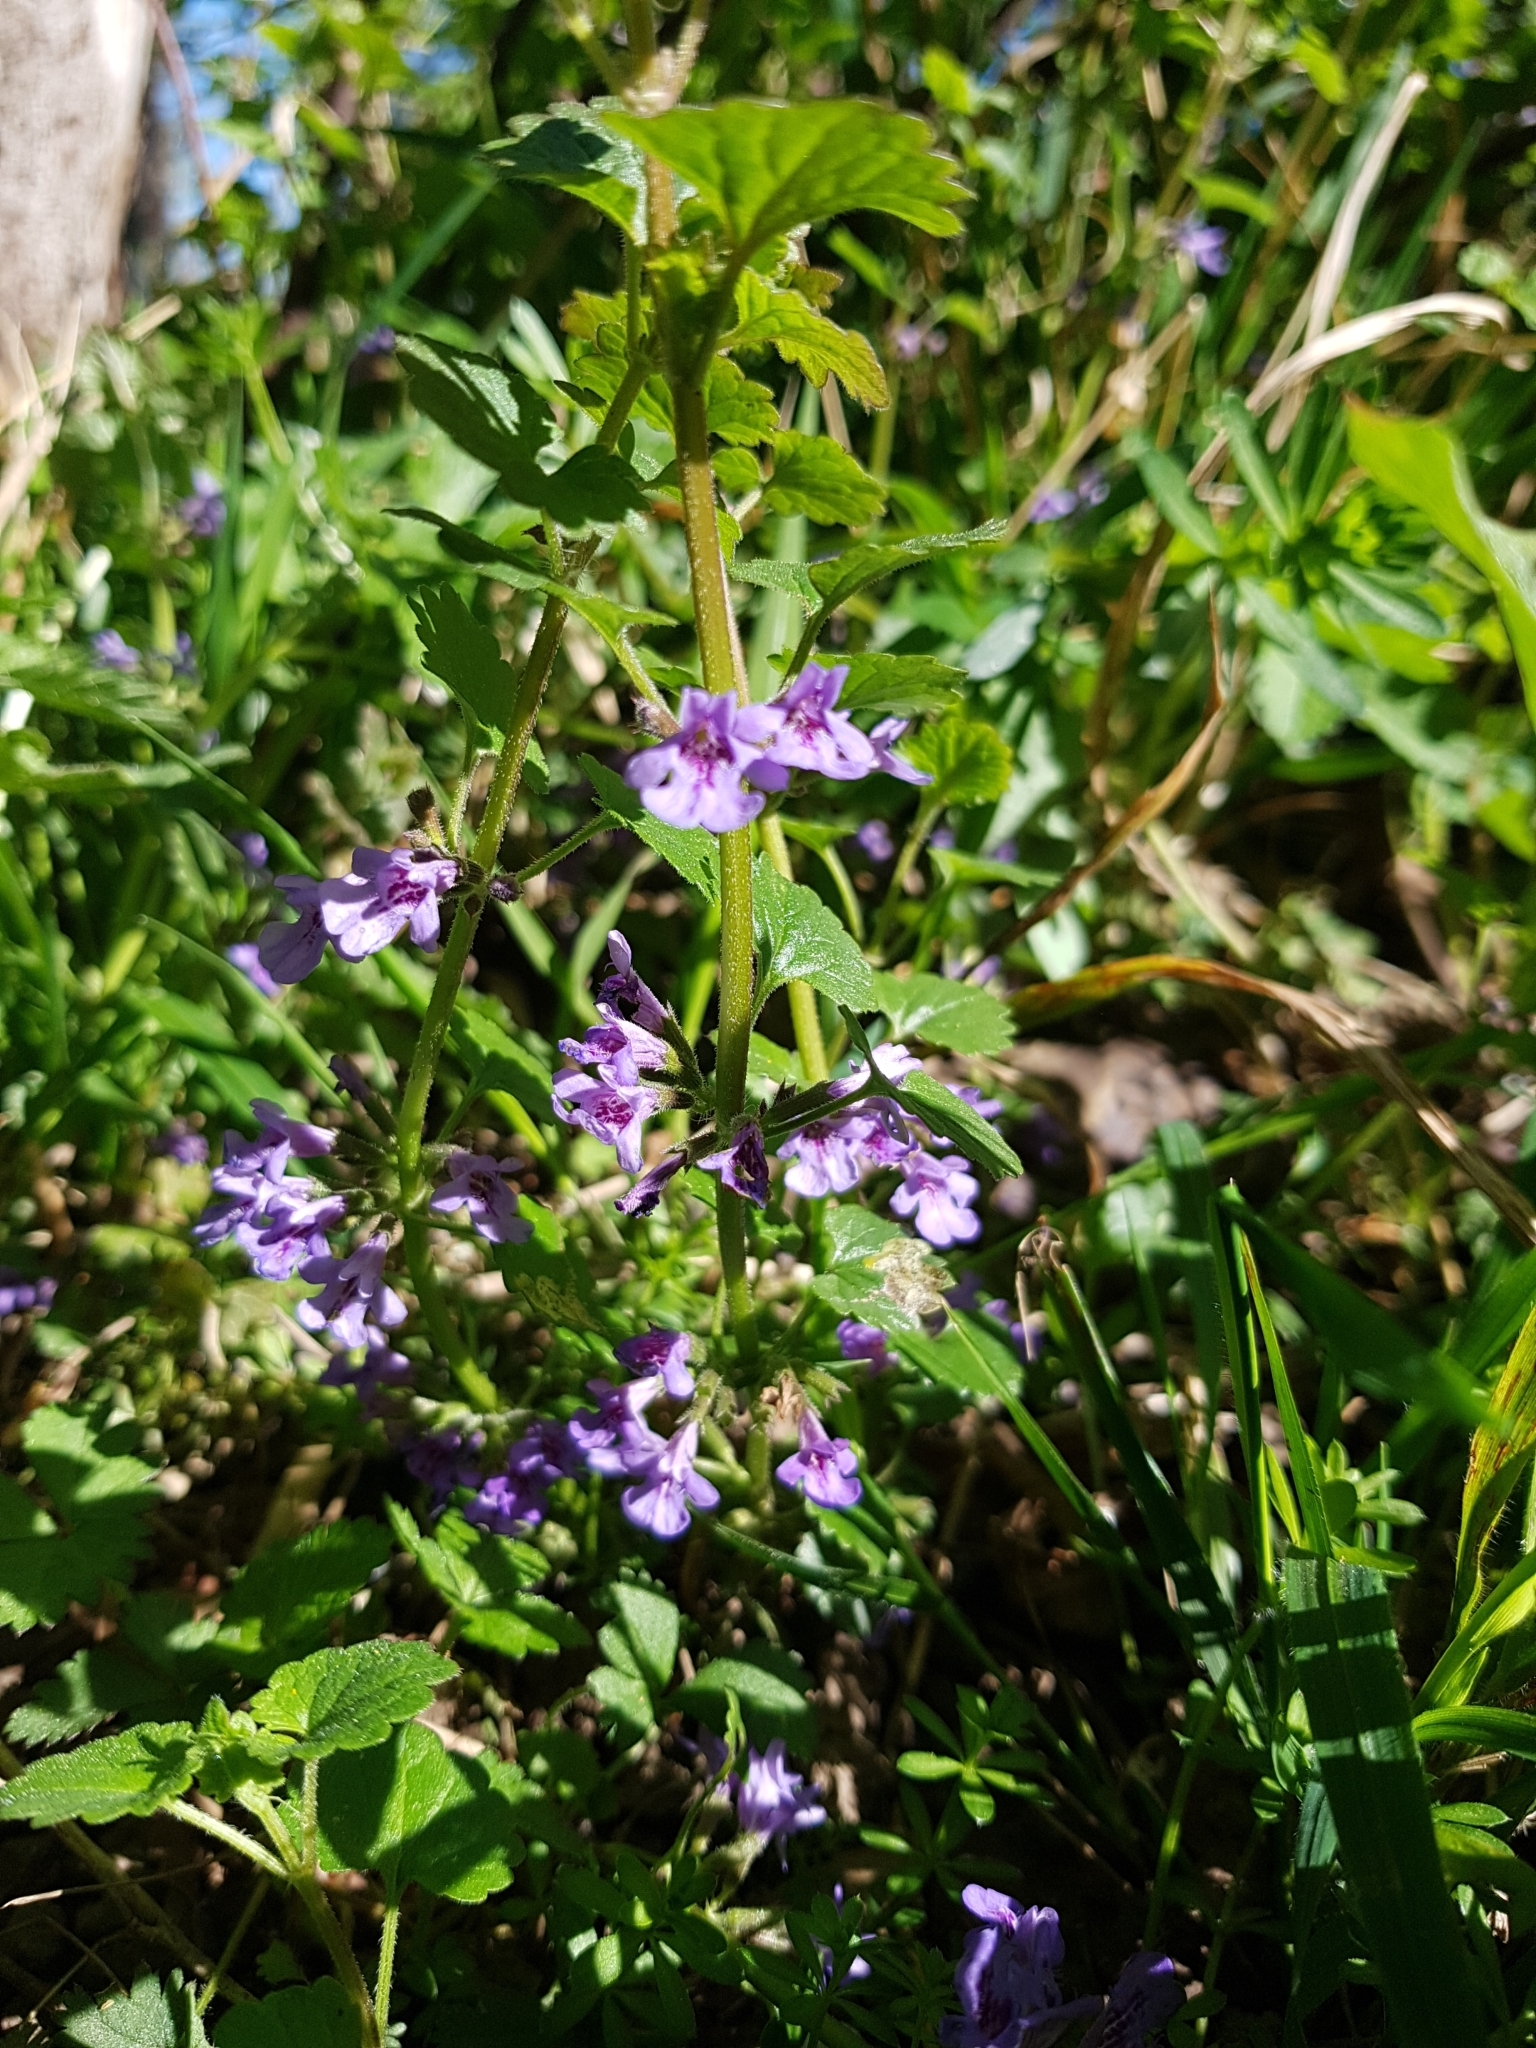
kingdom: Plantae
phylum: Tracheophyta
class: Magnoliopsida
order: Lamiales
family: Lamiaceae
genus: Glechoma
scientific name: Glechoma hederacea
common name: Ground ivy
